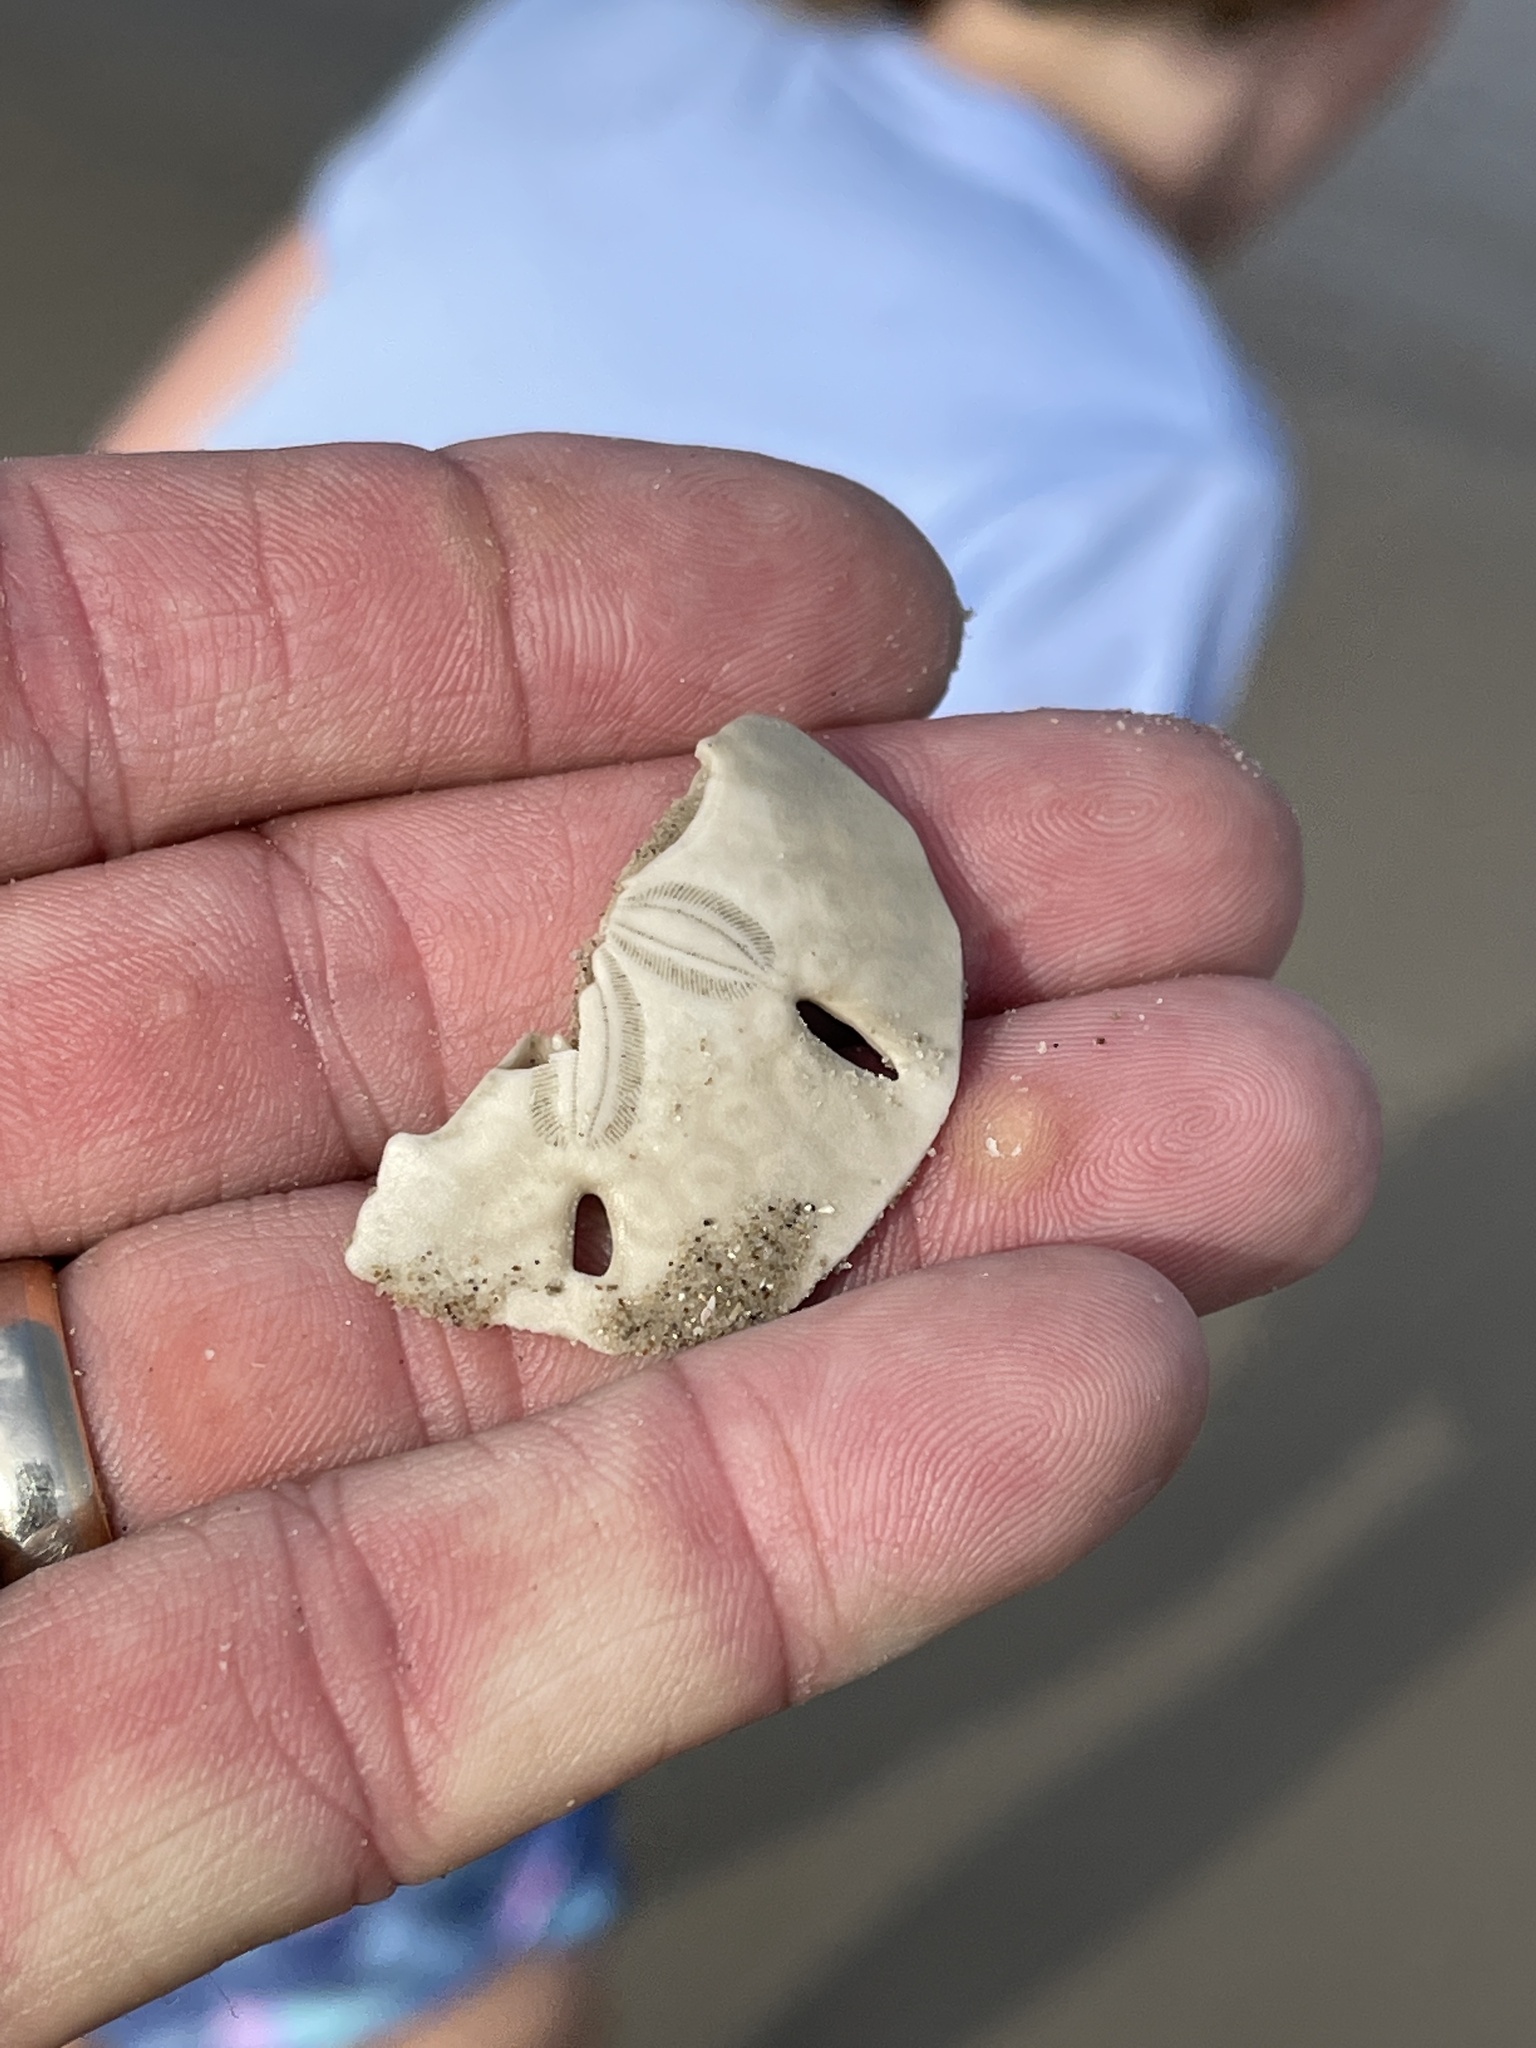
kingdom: Animalia
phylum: Echinodermata
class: Echinoidea
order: Echinolampadacea
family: Mellitidae
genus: Mellita
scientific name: Mellita quinquiesperforata
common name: Sand dollar
